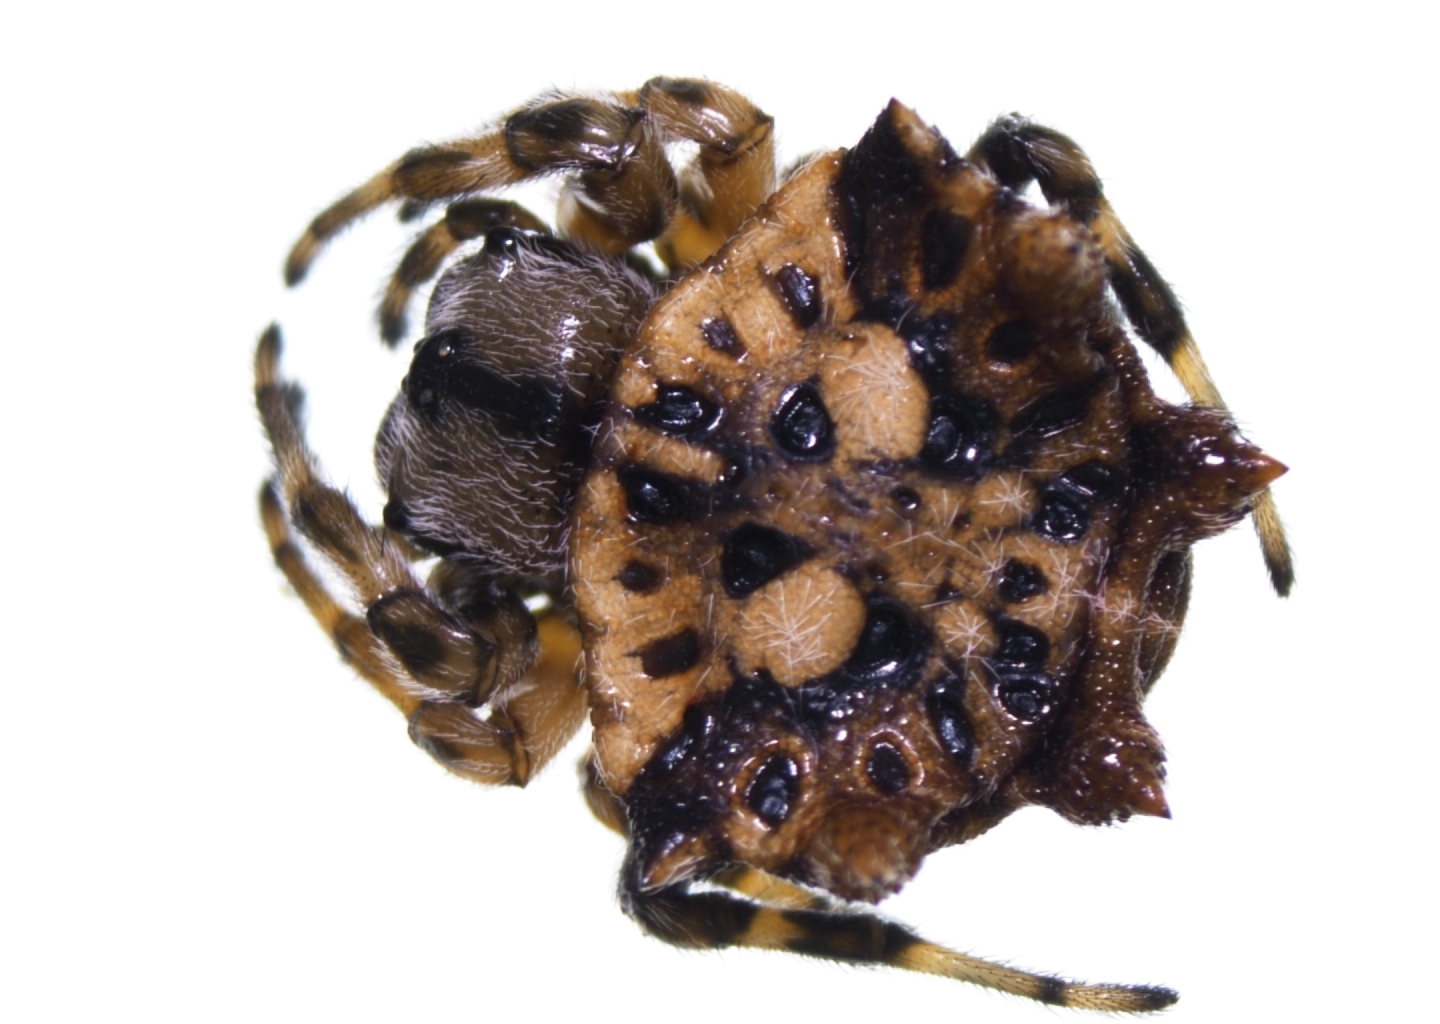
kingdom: Animalia
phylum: Arthropoda
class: Arachnida
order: Araneae
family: Araneidae
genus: Thelacantha
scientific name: Thelacantha brevispina
